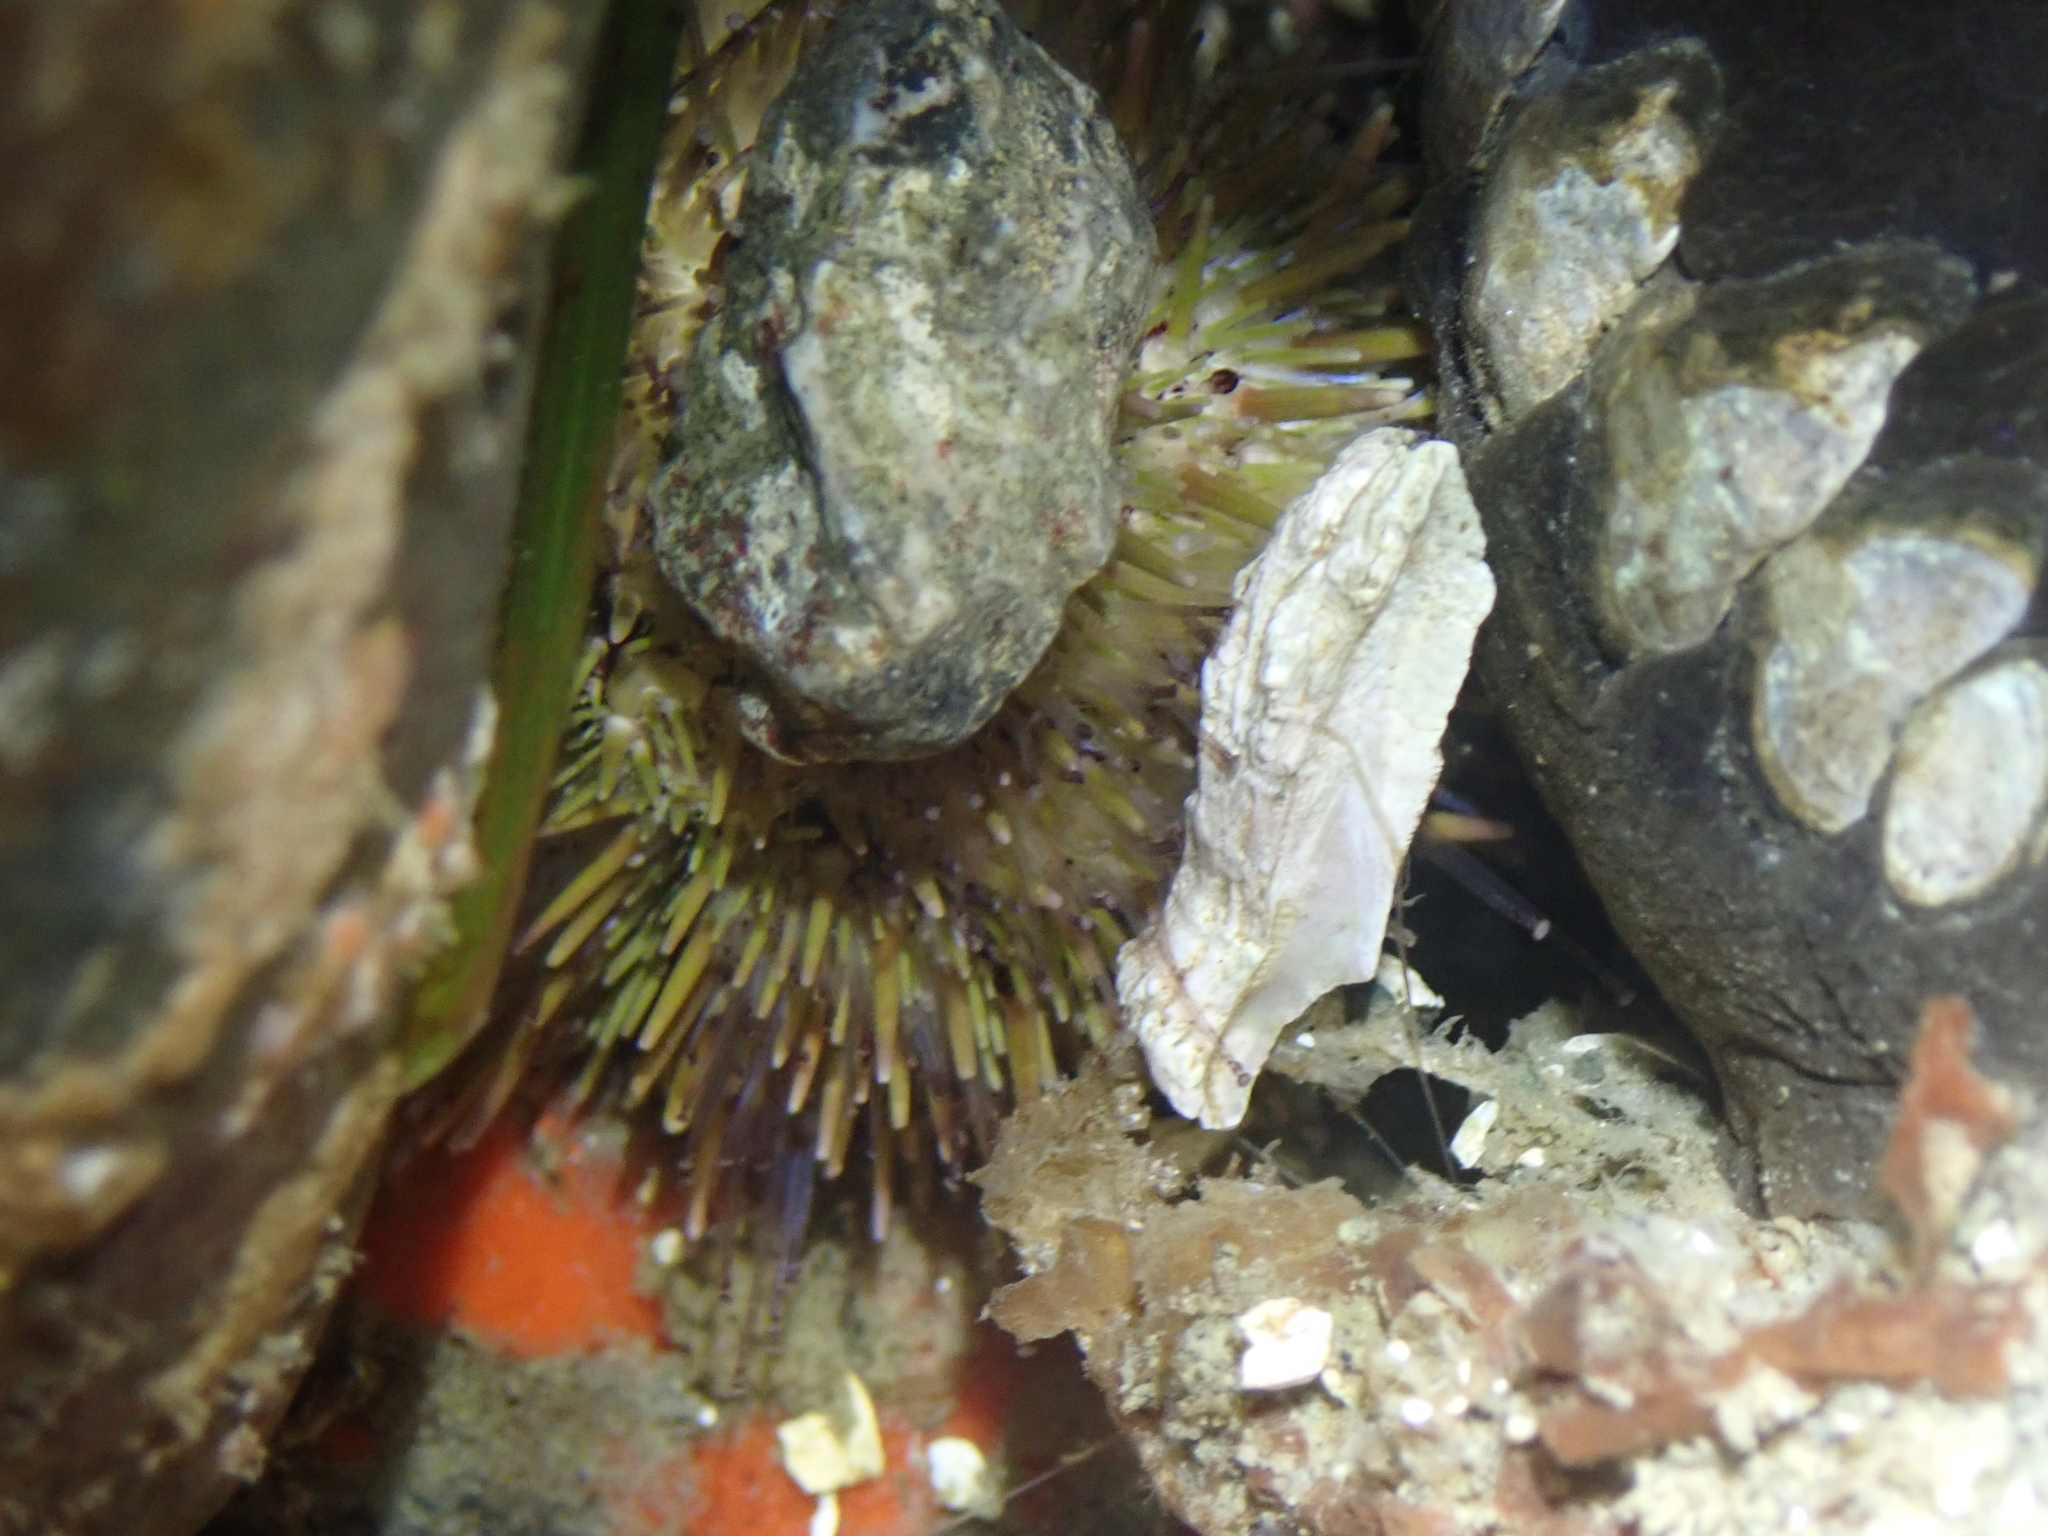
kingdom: Animalia
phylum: Echinodermata
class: Echinoidea
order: Camarodonta
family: Strongylocentrotidae
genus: Strongylocentrotus
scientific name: Strongylocentrotus droebachiensis
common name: Northern sea urchin
